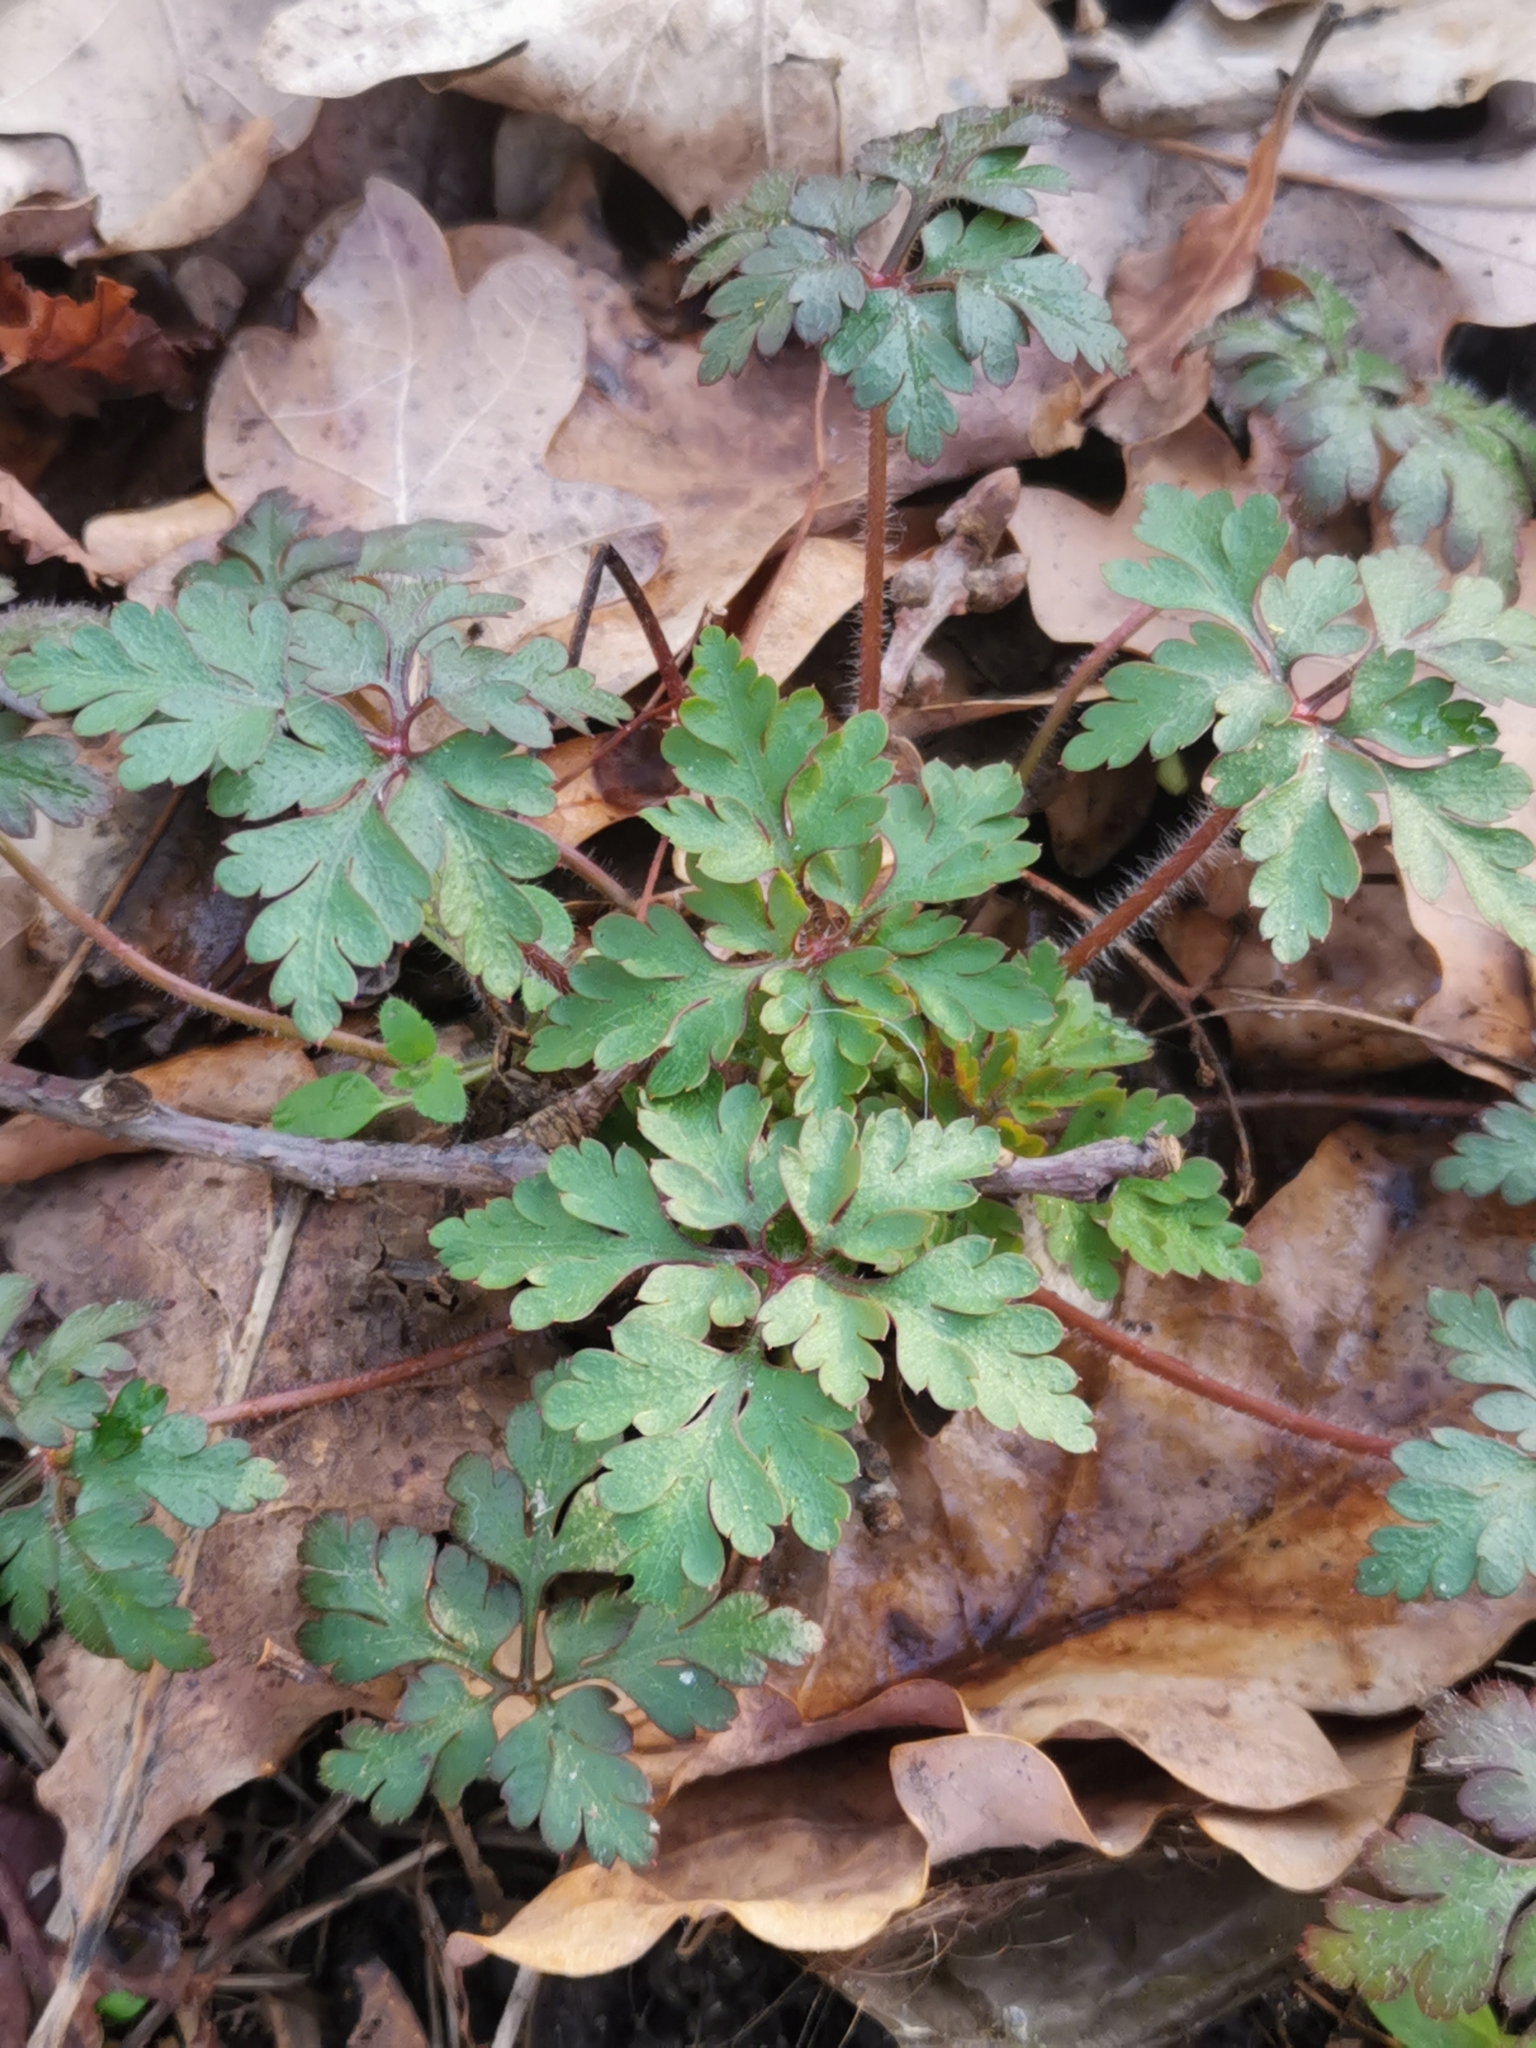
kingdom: Plantae
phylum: Tracheophyta
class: Magnoliopsida
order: Geraniales
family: Geraniaceae
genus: Geranium
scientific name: Geranium robertianum
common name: Herb-robert
